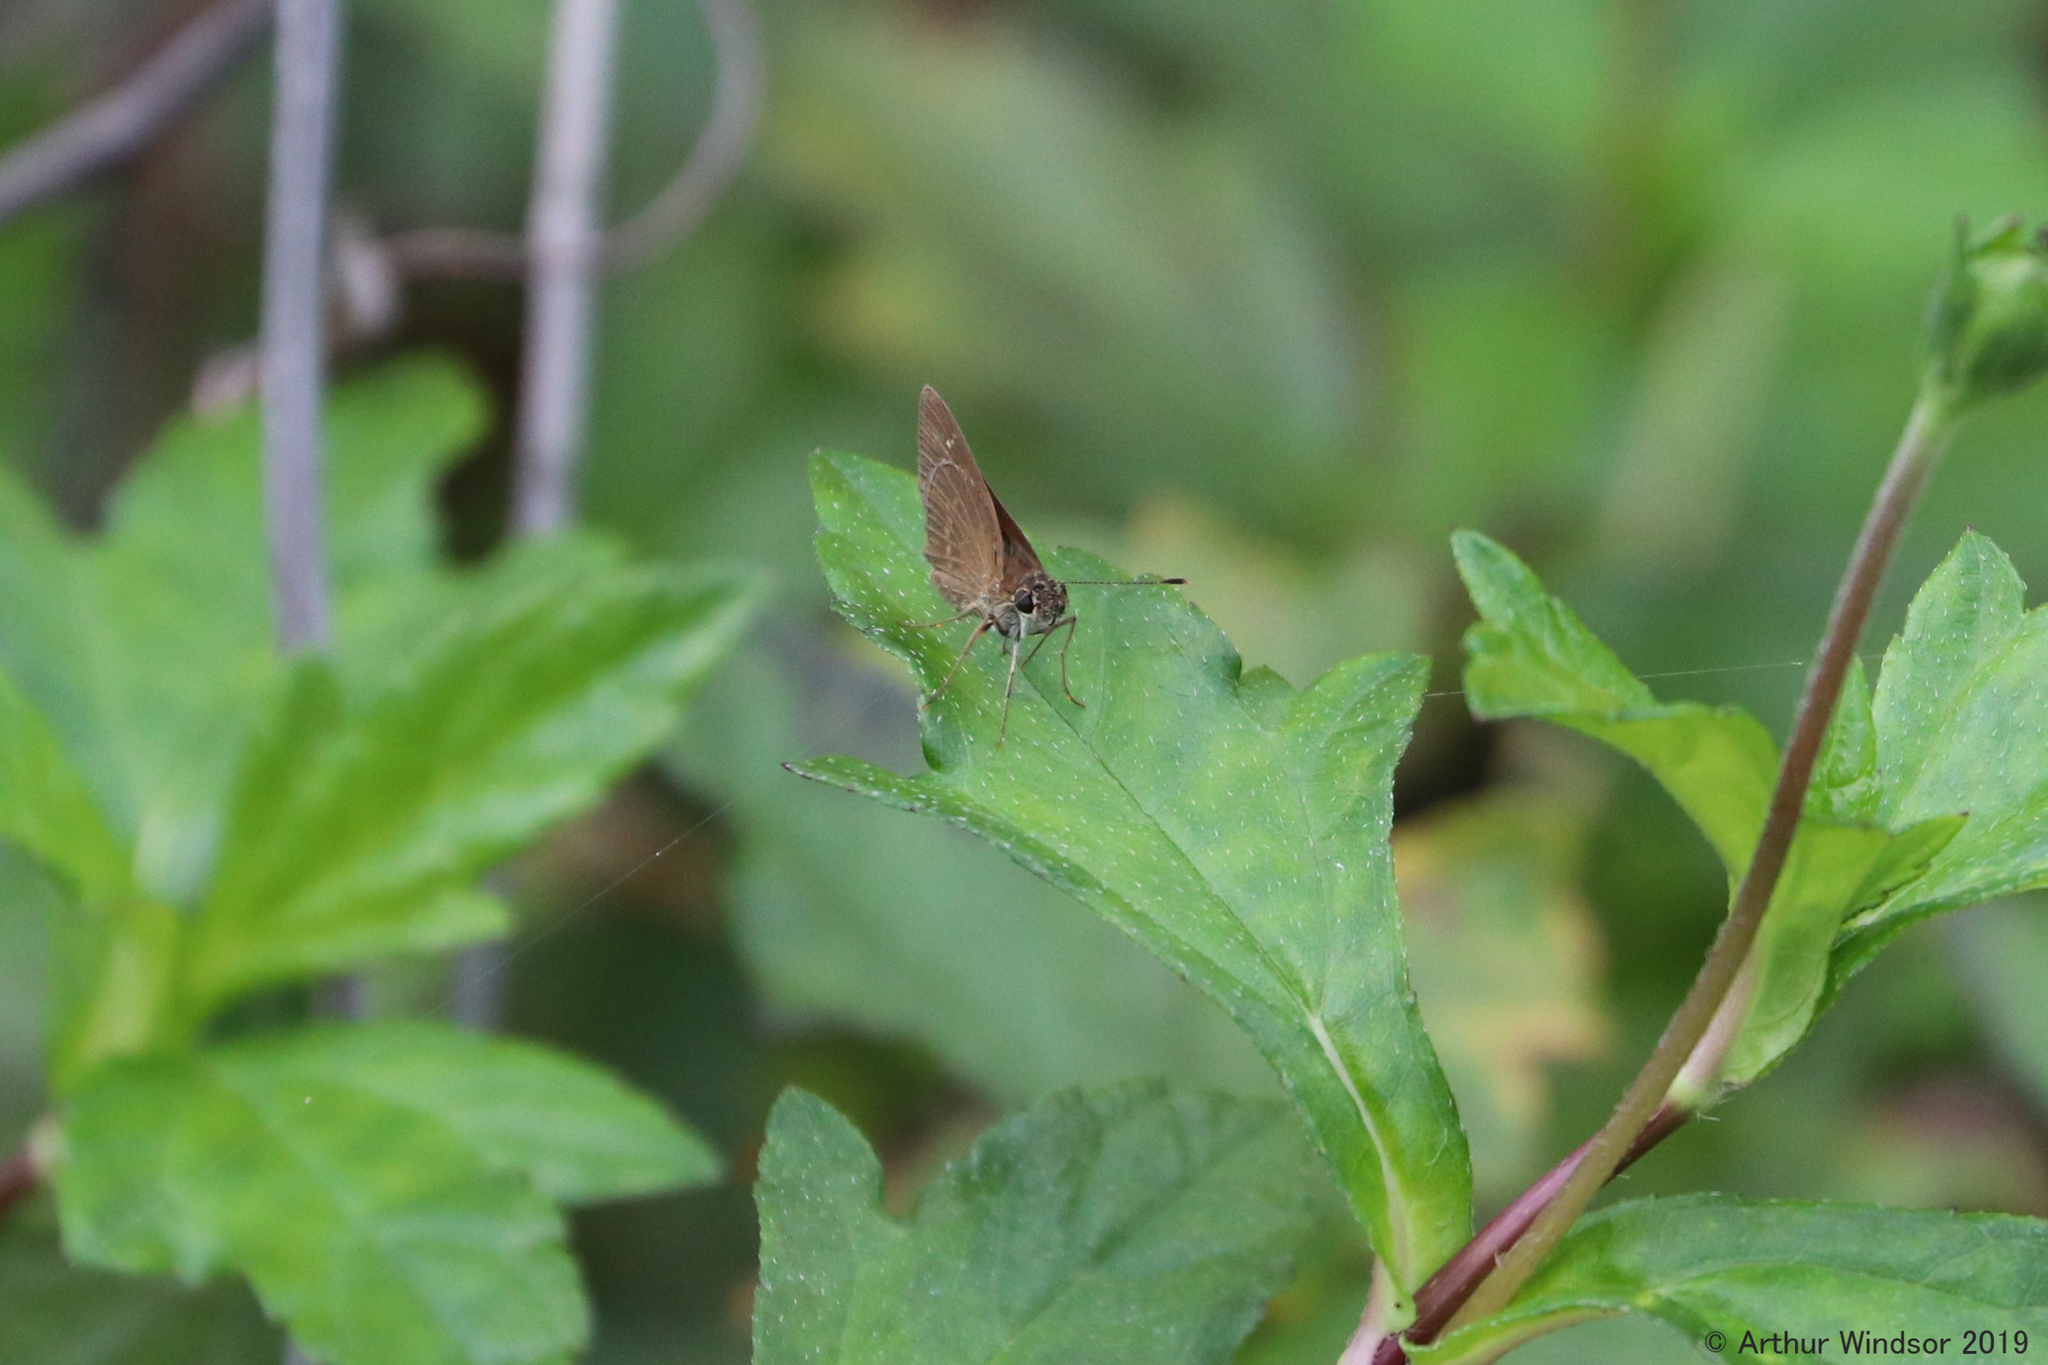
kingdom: Animalia
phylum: Arthropoda
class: Insecta
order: Lepidoptera
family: Hesperiidae
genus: Cymaenes
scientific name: Cymaenes tripunctus
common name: Dingy dotted skipper
